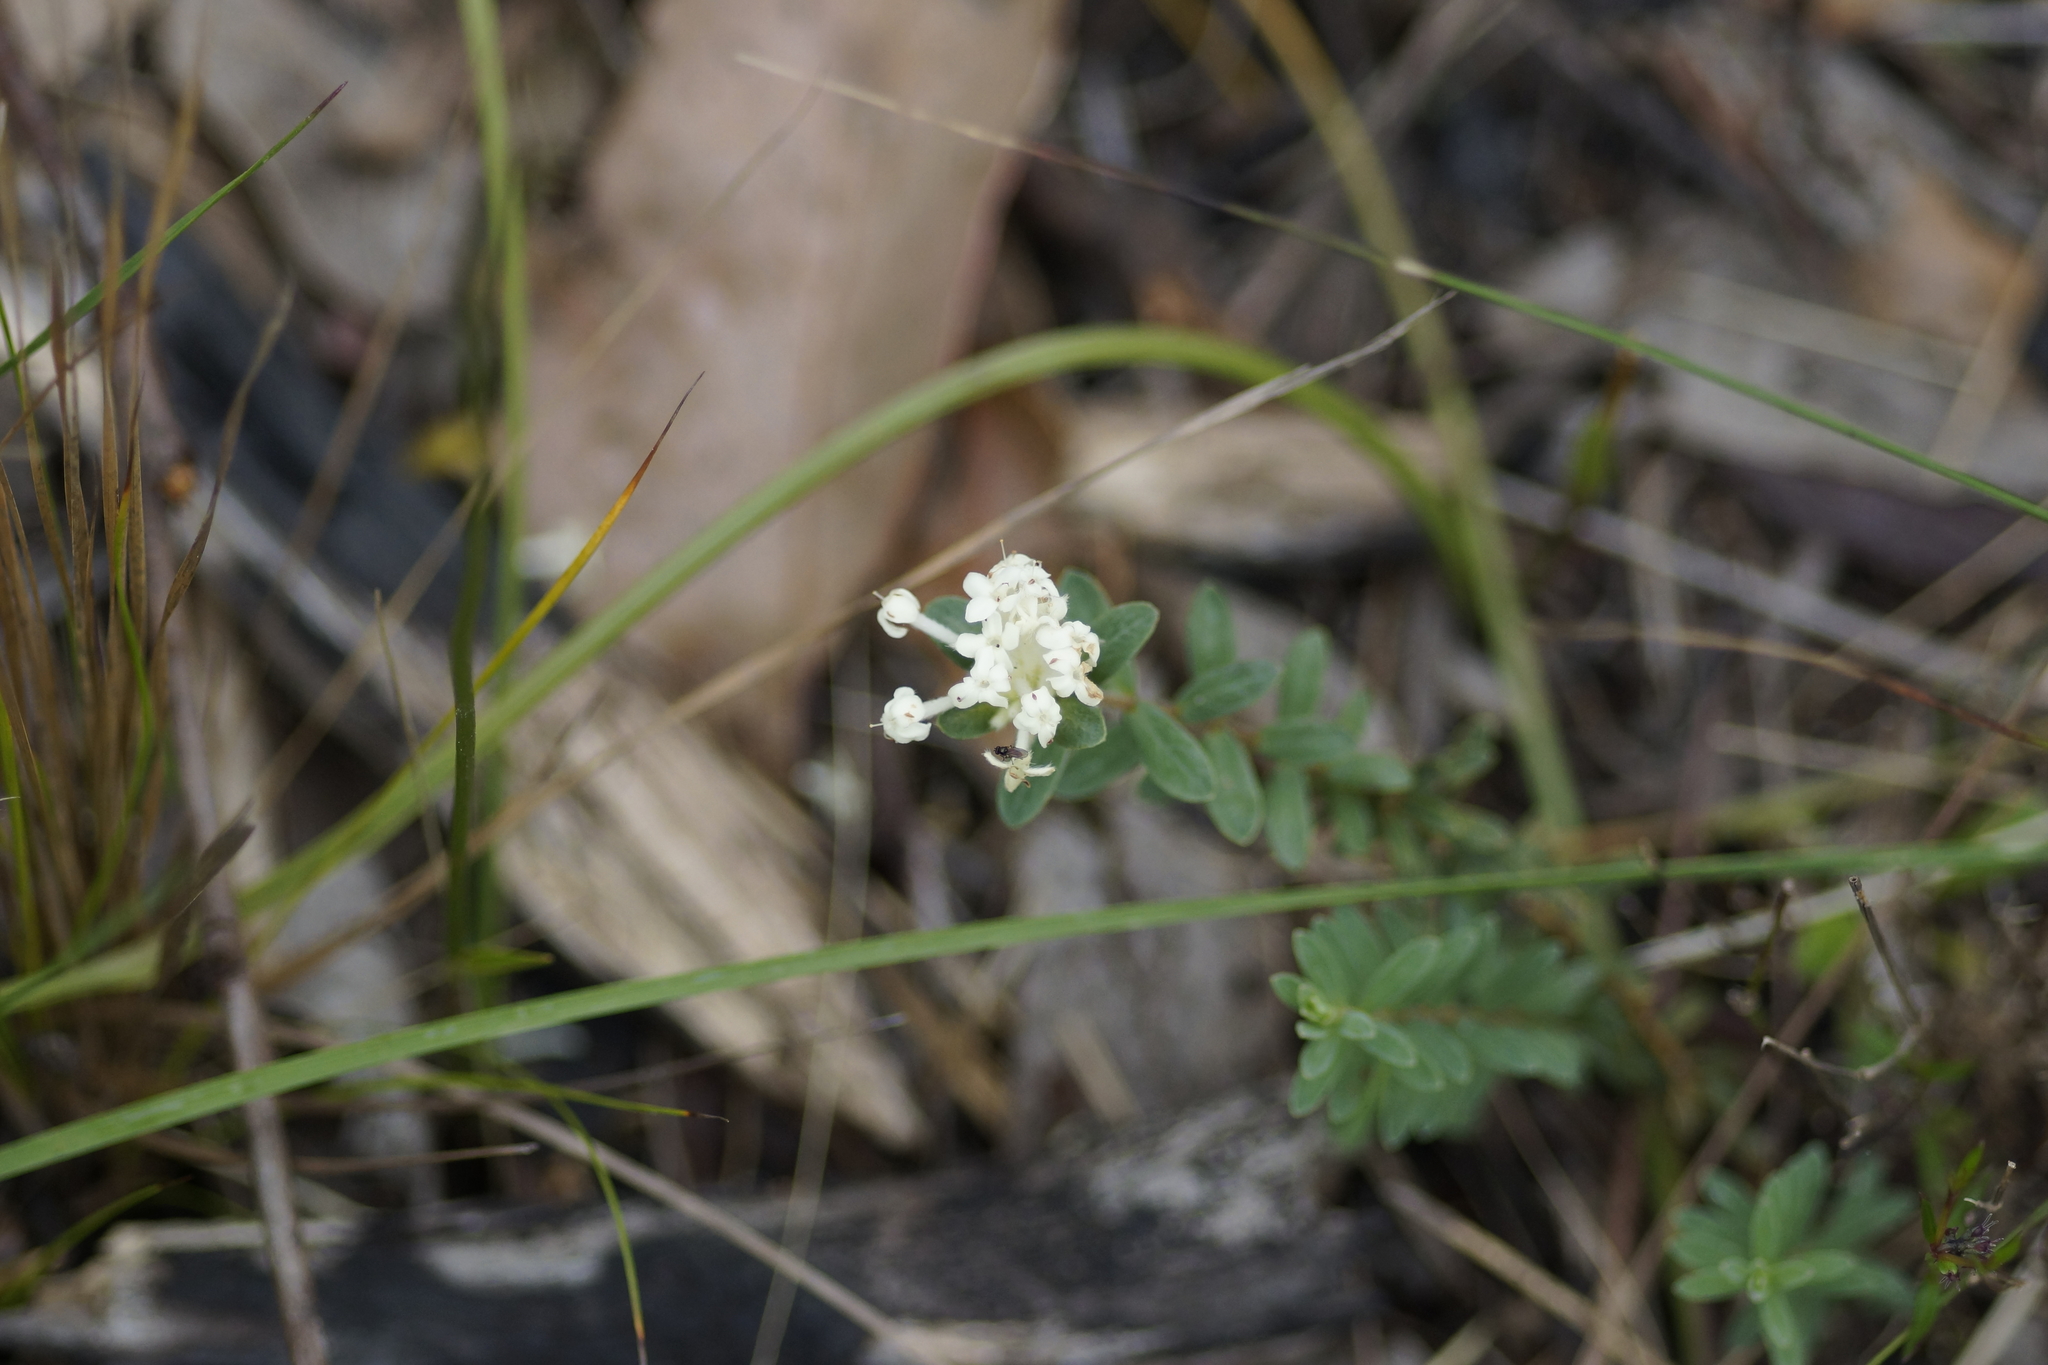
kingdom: Plantae
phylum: Tracheophyta
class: Magnoliopsida
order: Malvales
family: Thymelaeaceae
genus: Pimelea
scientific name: Pimelea humilis
